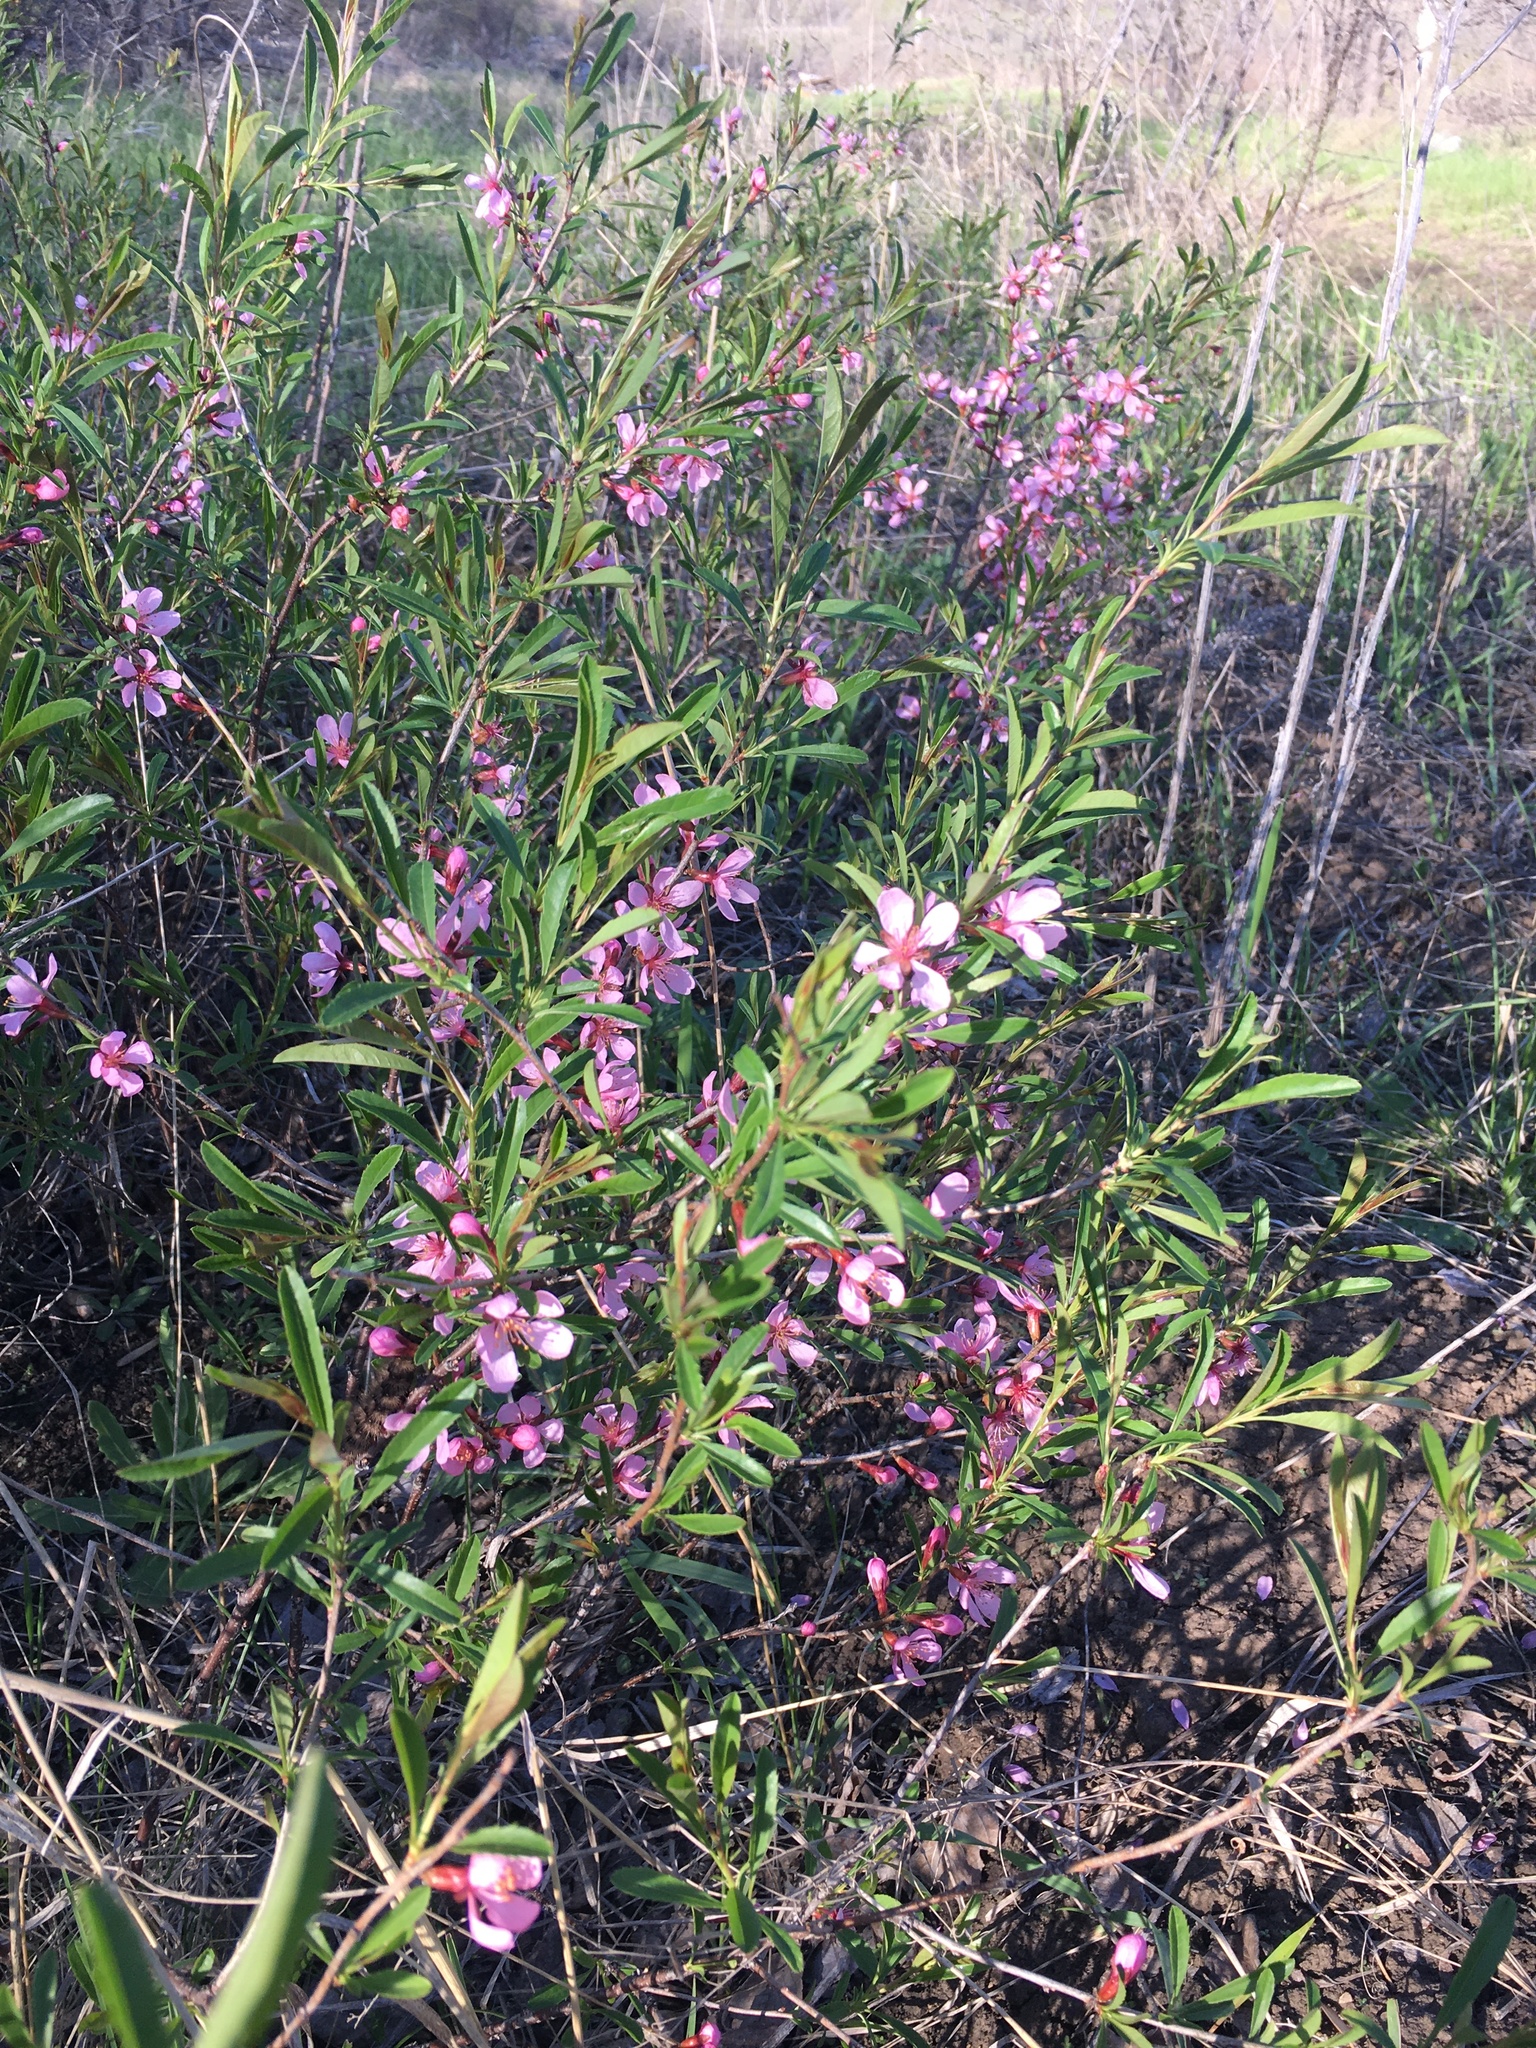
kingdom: Plantae
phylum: Tracheophyta
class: Magnoliopsida
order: Rosales
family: Rosaceae
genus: Prunus
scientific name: Prunus tenella
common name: Dwarf russian almond
